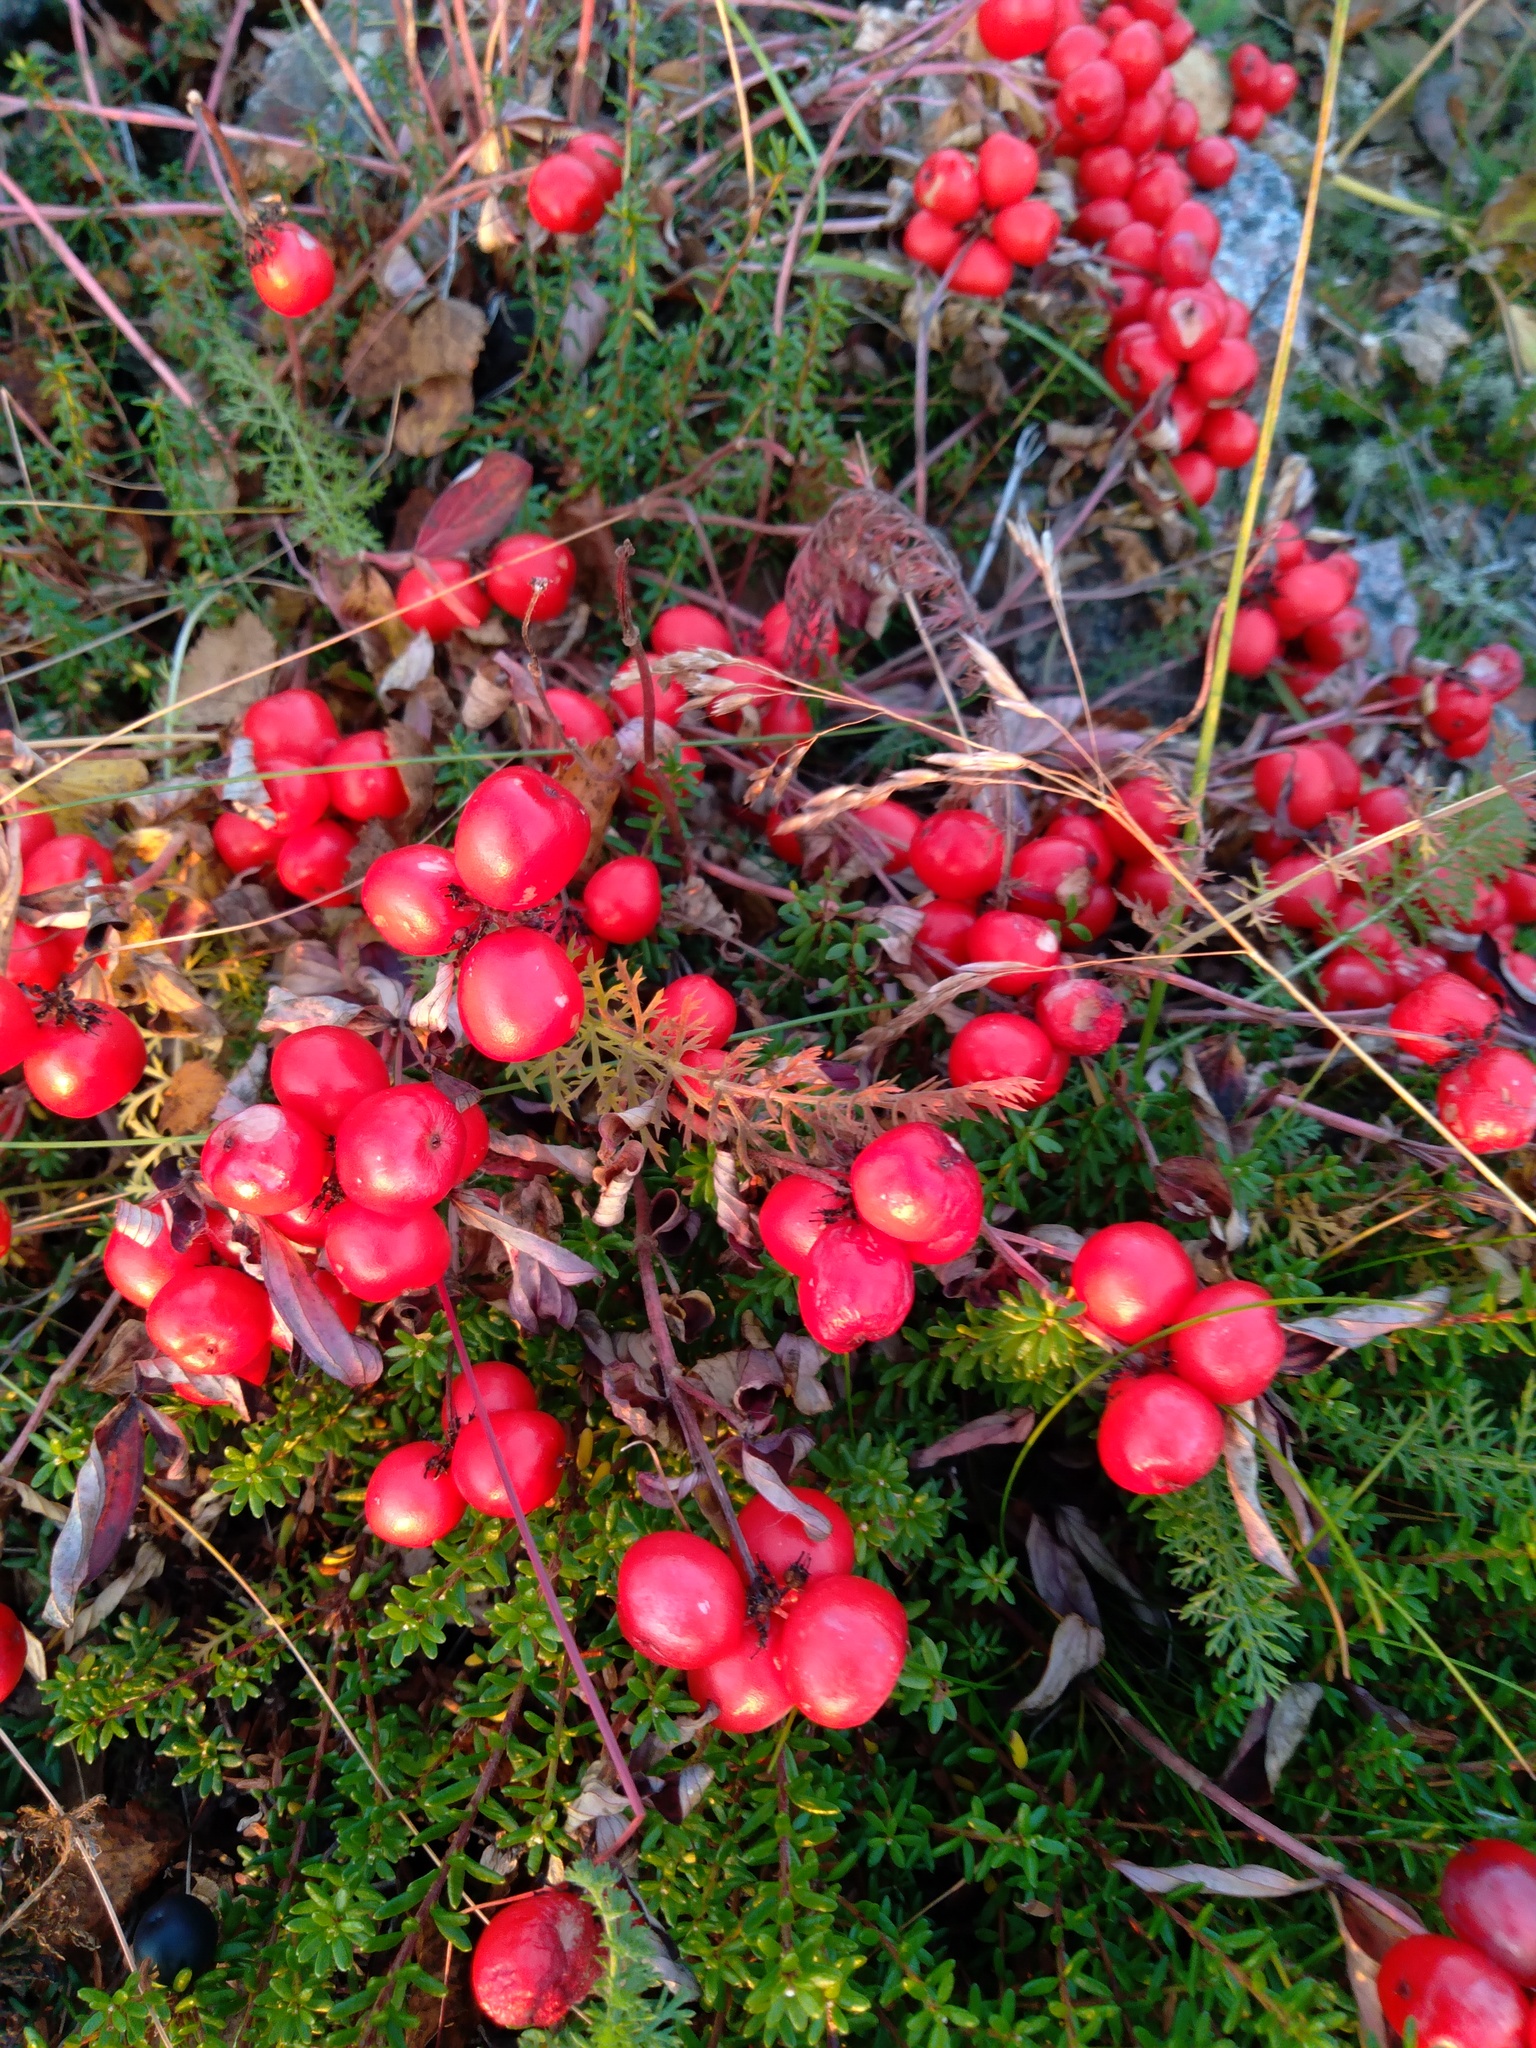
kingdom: Plantae
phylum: Tracheophyta
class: Magnoliopsida
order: Cornales
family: Cornaceae
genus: Cornus
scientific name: Cornus suecica
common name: Dwarf cornel
